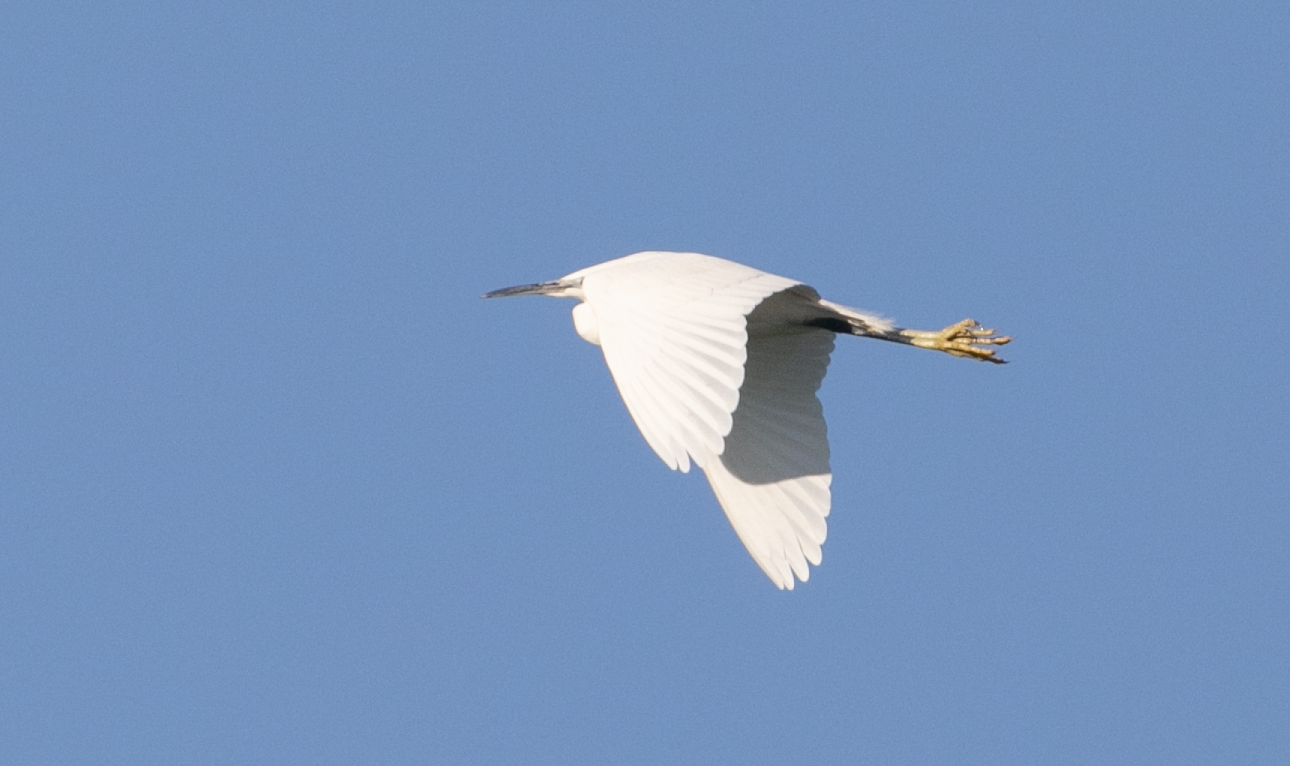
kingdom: Animalia
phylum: Chordata
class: Aves
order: Pelecaniformes
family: Ardeidae
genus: Egretta
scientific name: Egretta garzetta
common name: Little egret
